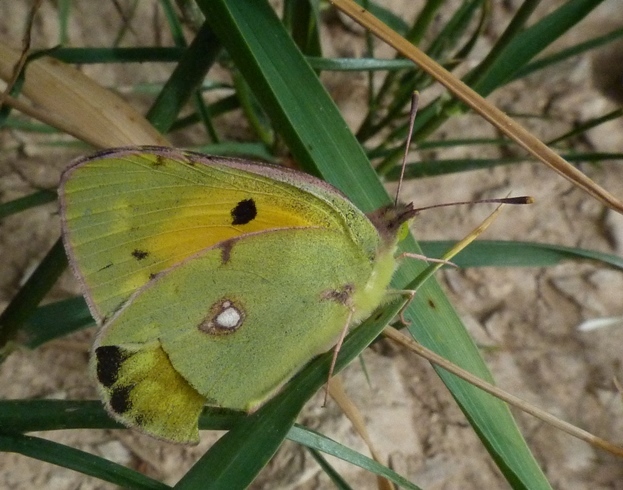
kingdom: Animalia
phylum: Arthropoda
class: Insecta
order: Lepidoptera
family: Pieridae
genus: Colias
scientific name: Colias croceus
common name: Clouded yellow
